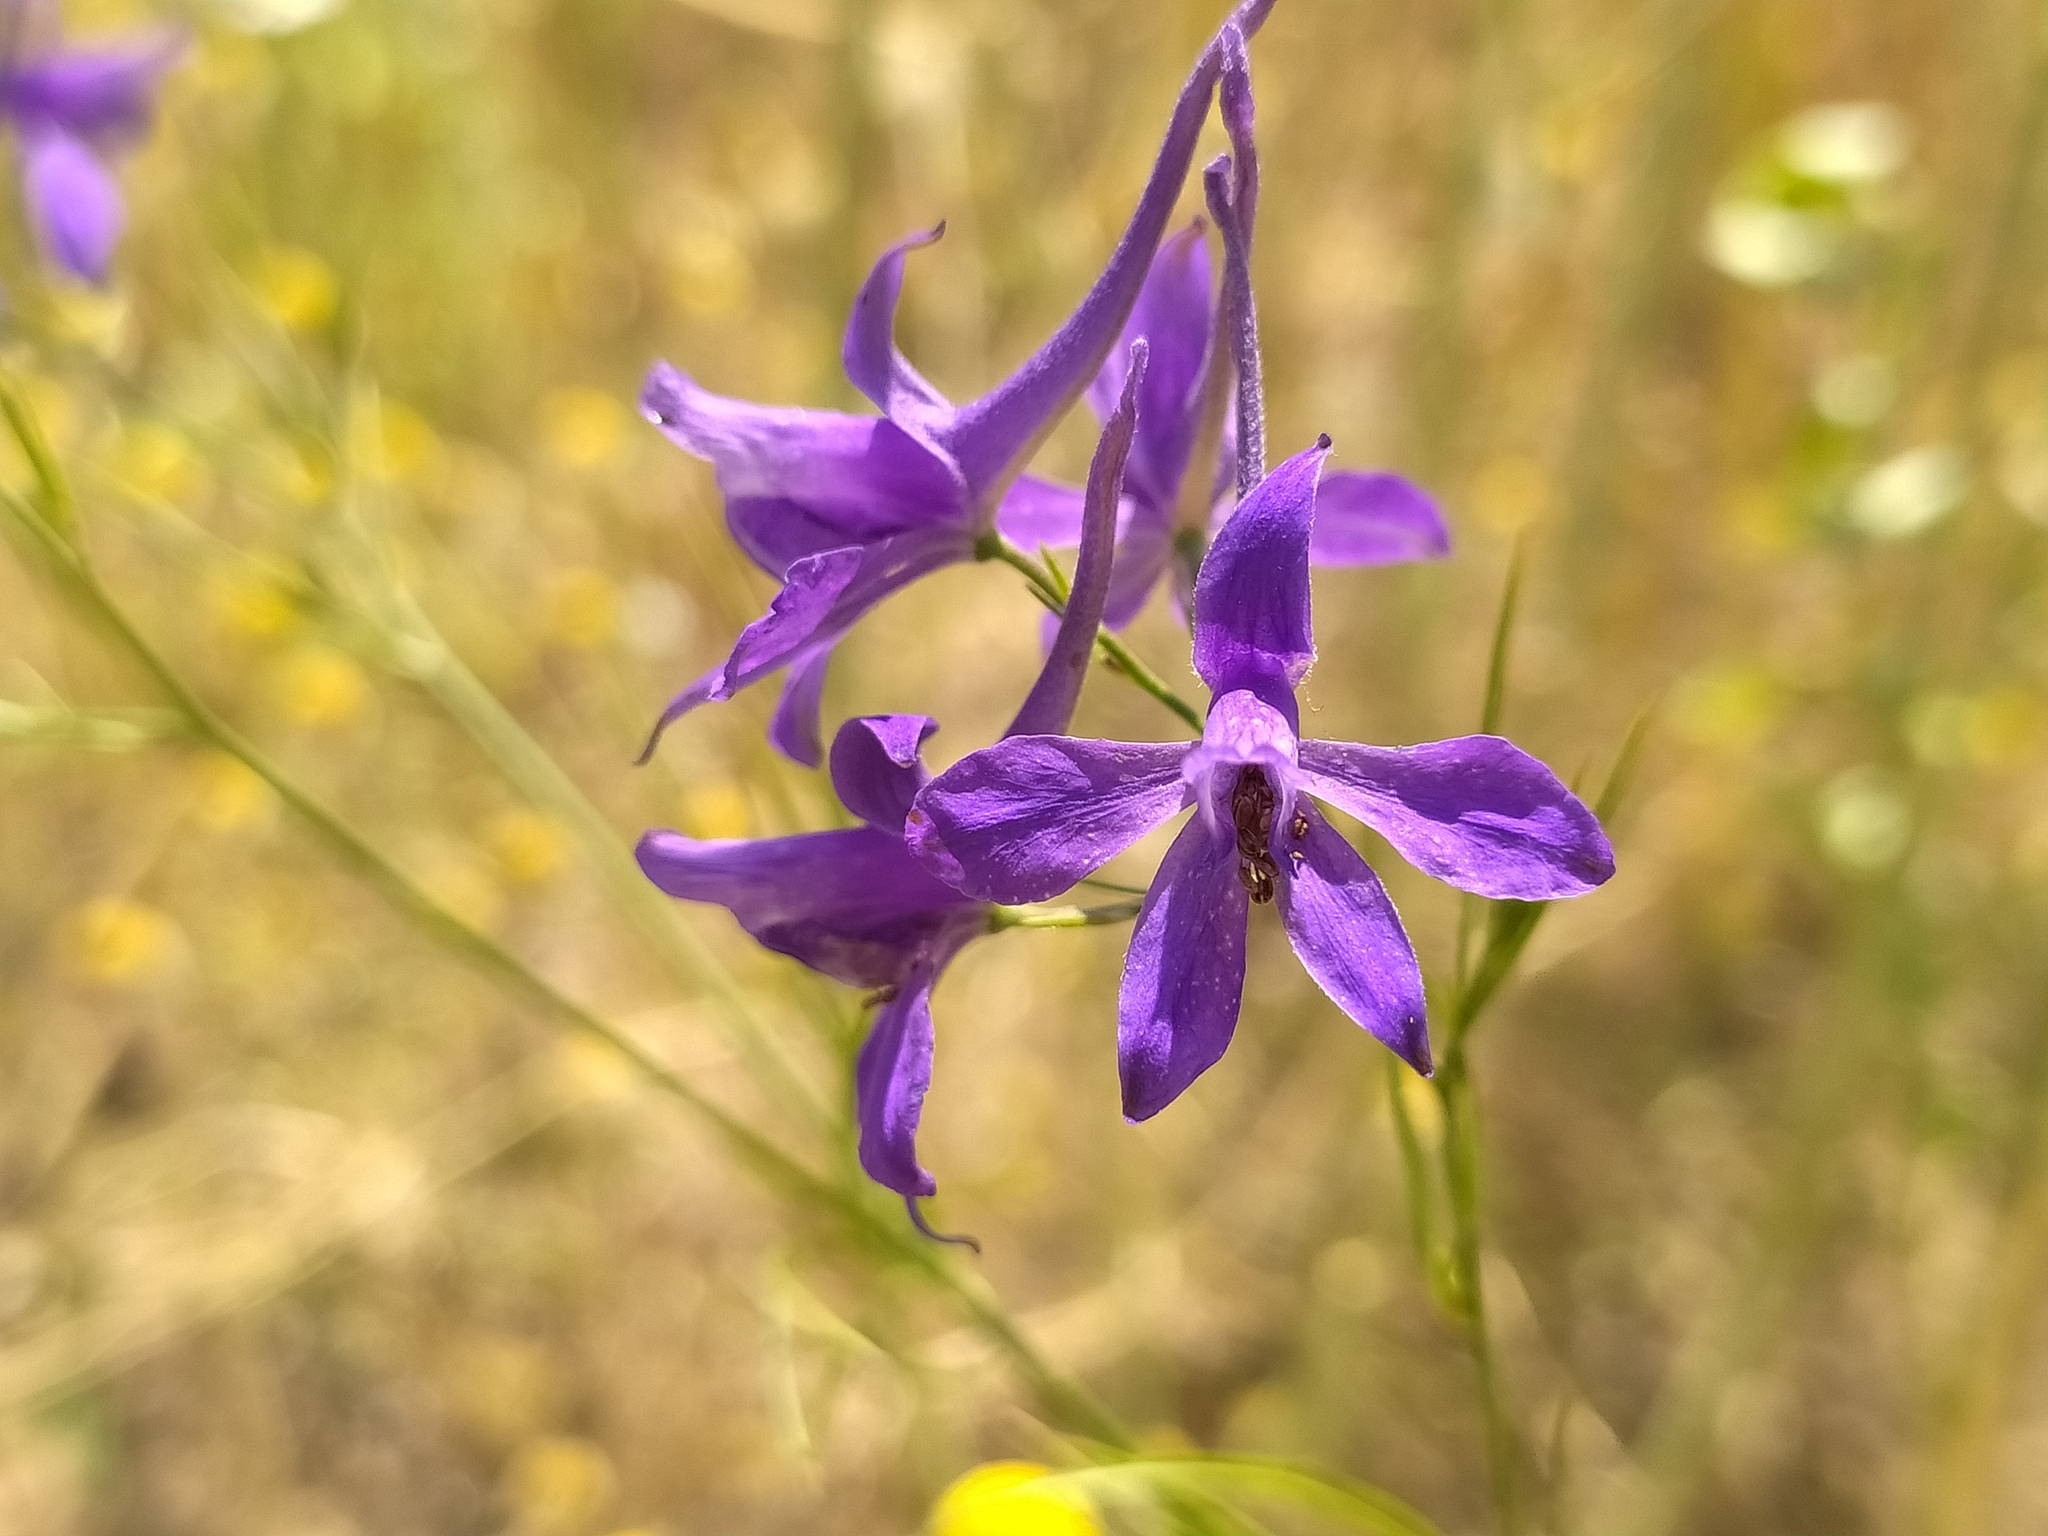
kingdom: Plantae
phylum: Tracheophyta
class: Magnoliopsida
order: Ranunculales
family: Ranunculaceae
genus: Delphinium
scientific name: Delphinium consolida
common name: Branching larkspur
